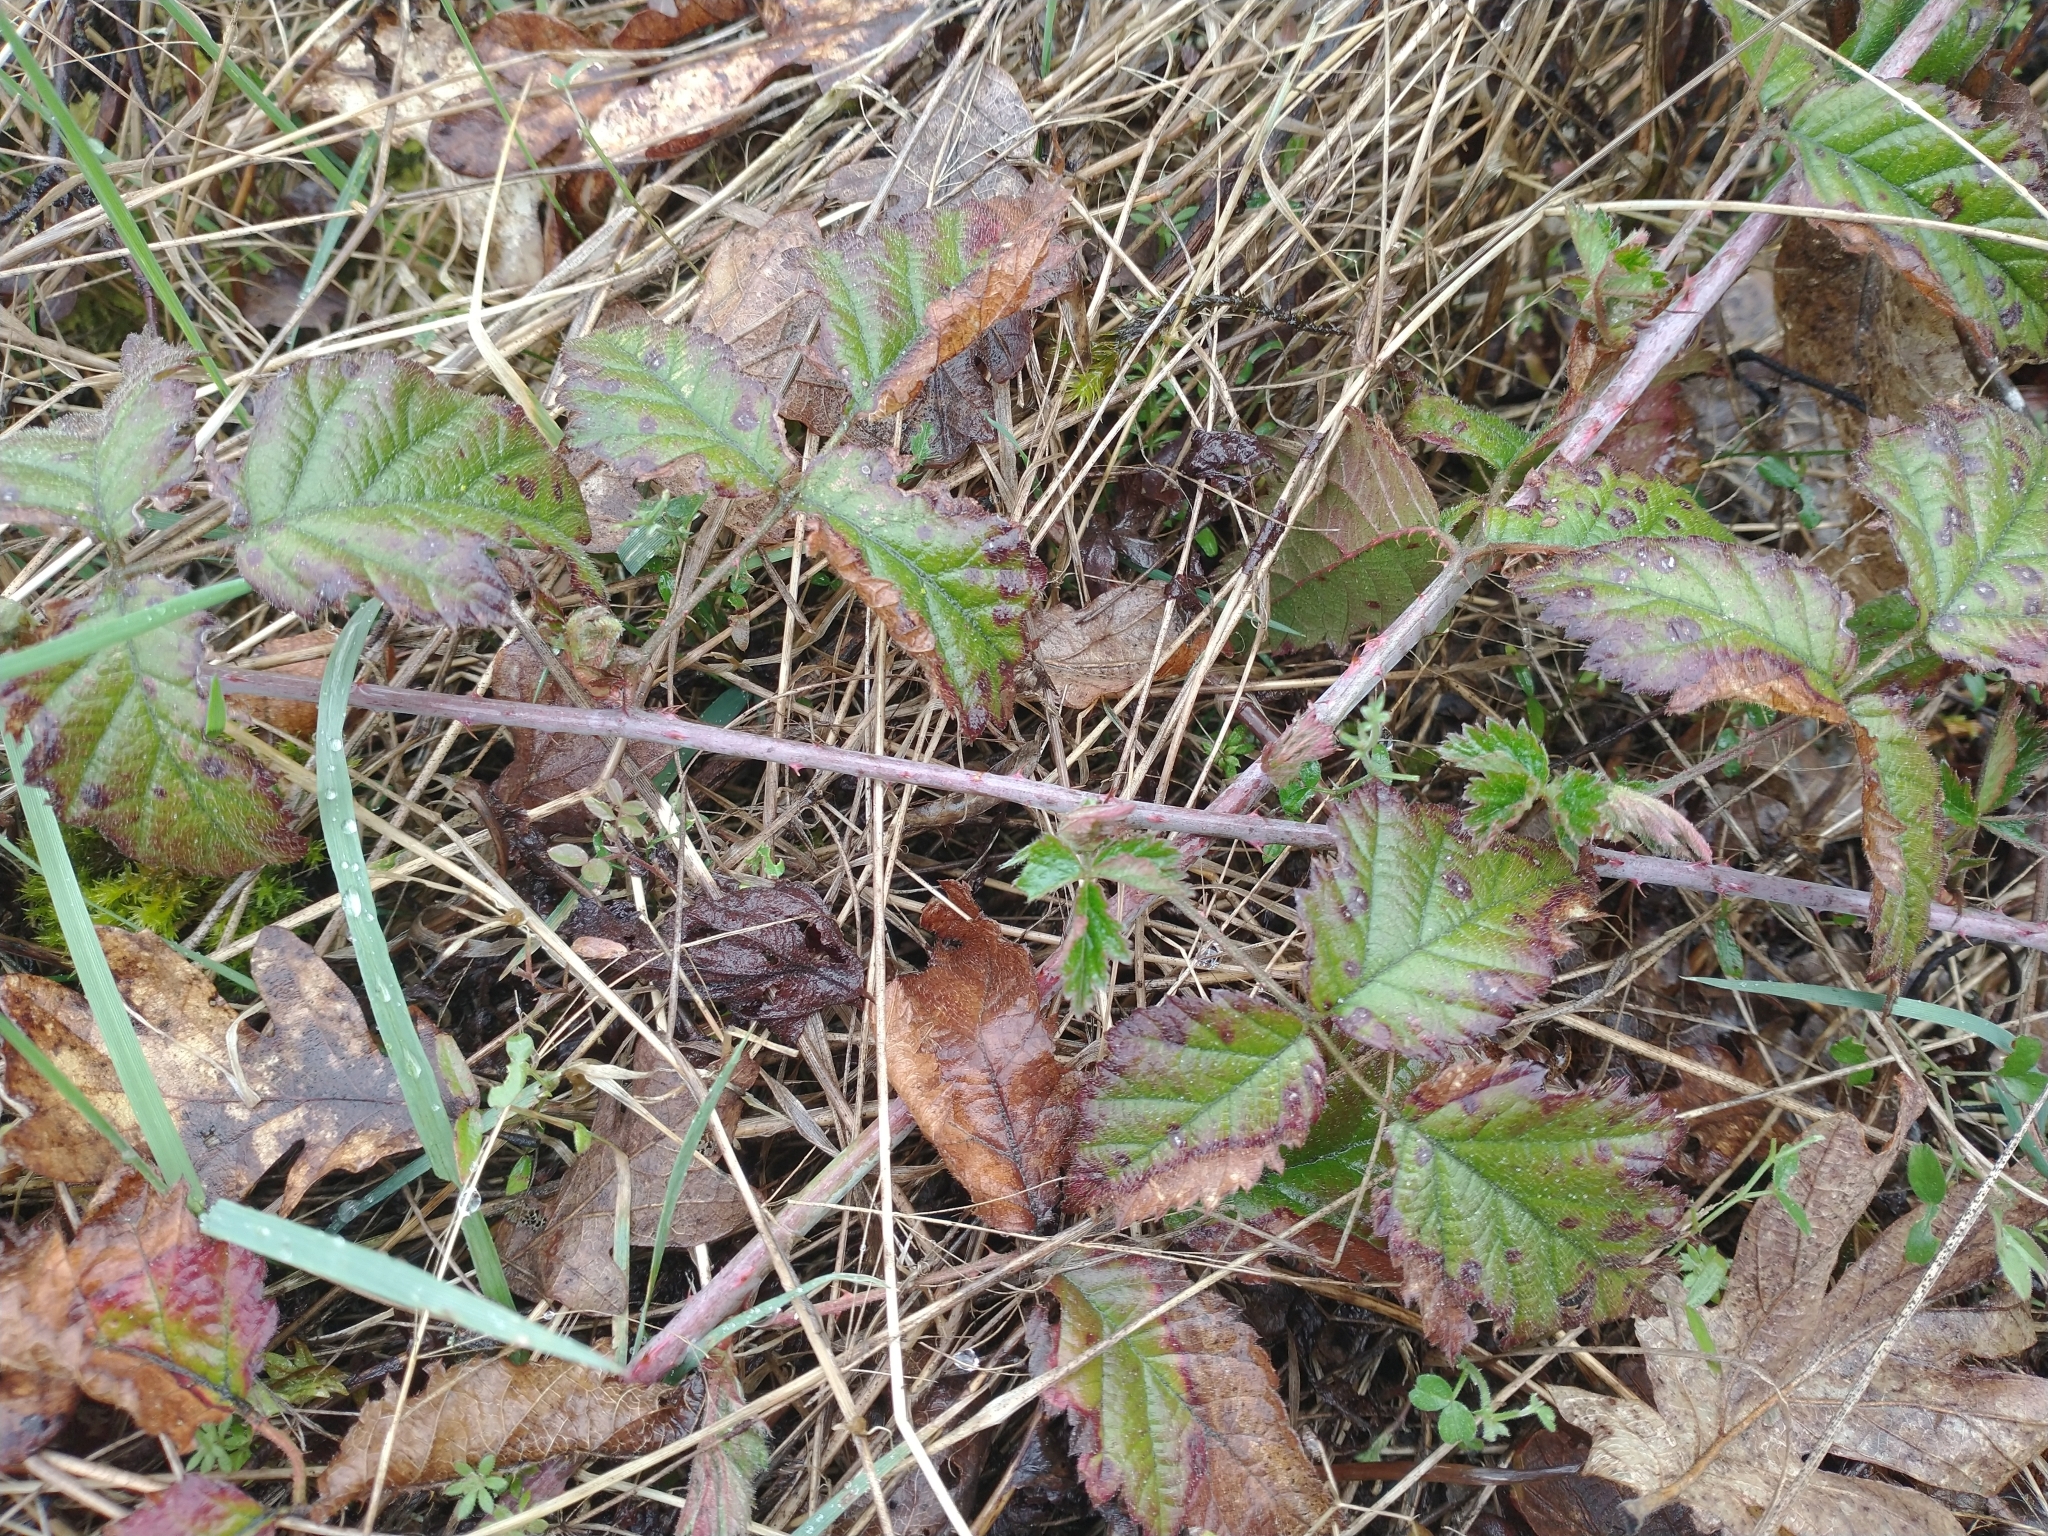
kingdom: Plantae
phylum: Tracheophyta
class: Magnoliopsida
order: Rosales
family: Rosaceae
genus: Rubus
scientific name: Rubus ursinus
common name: Pacific blackberry
